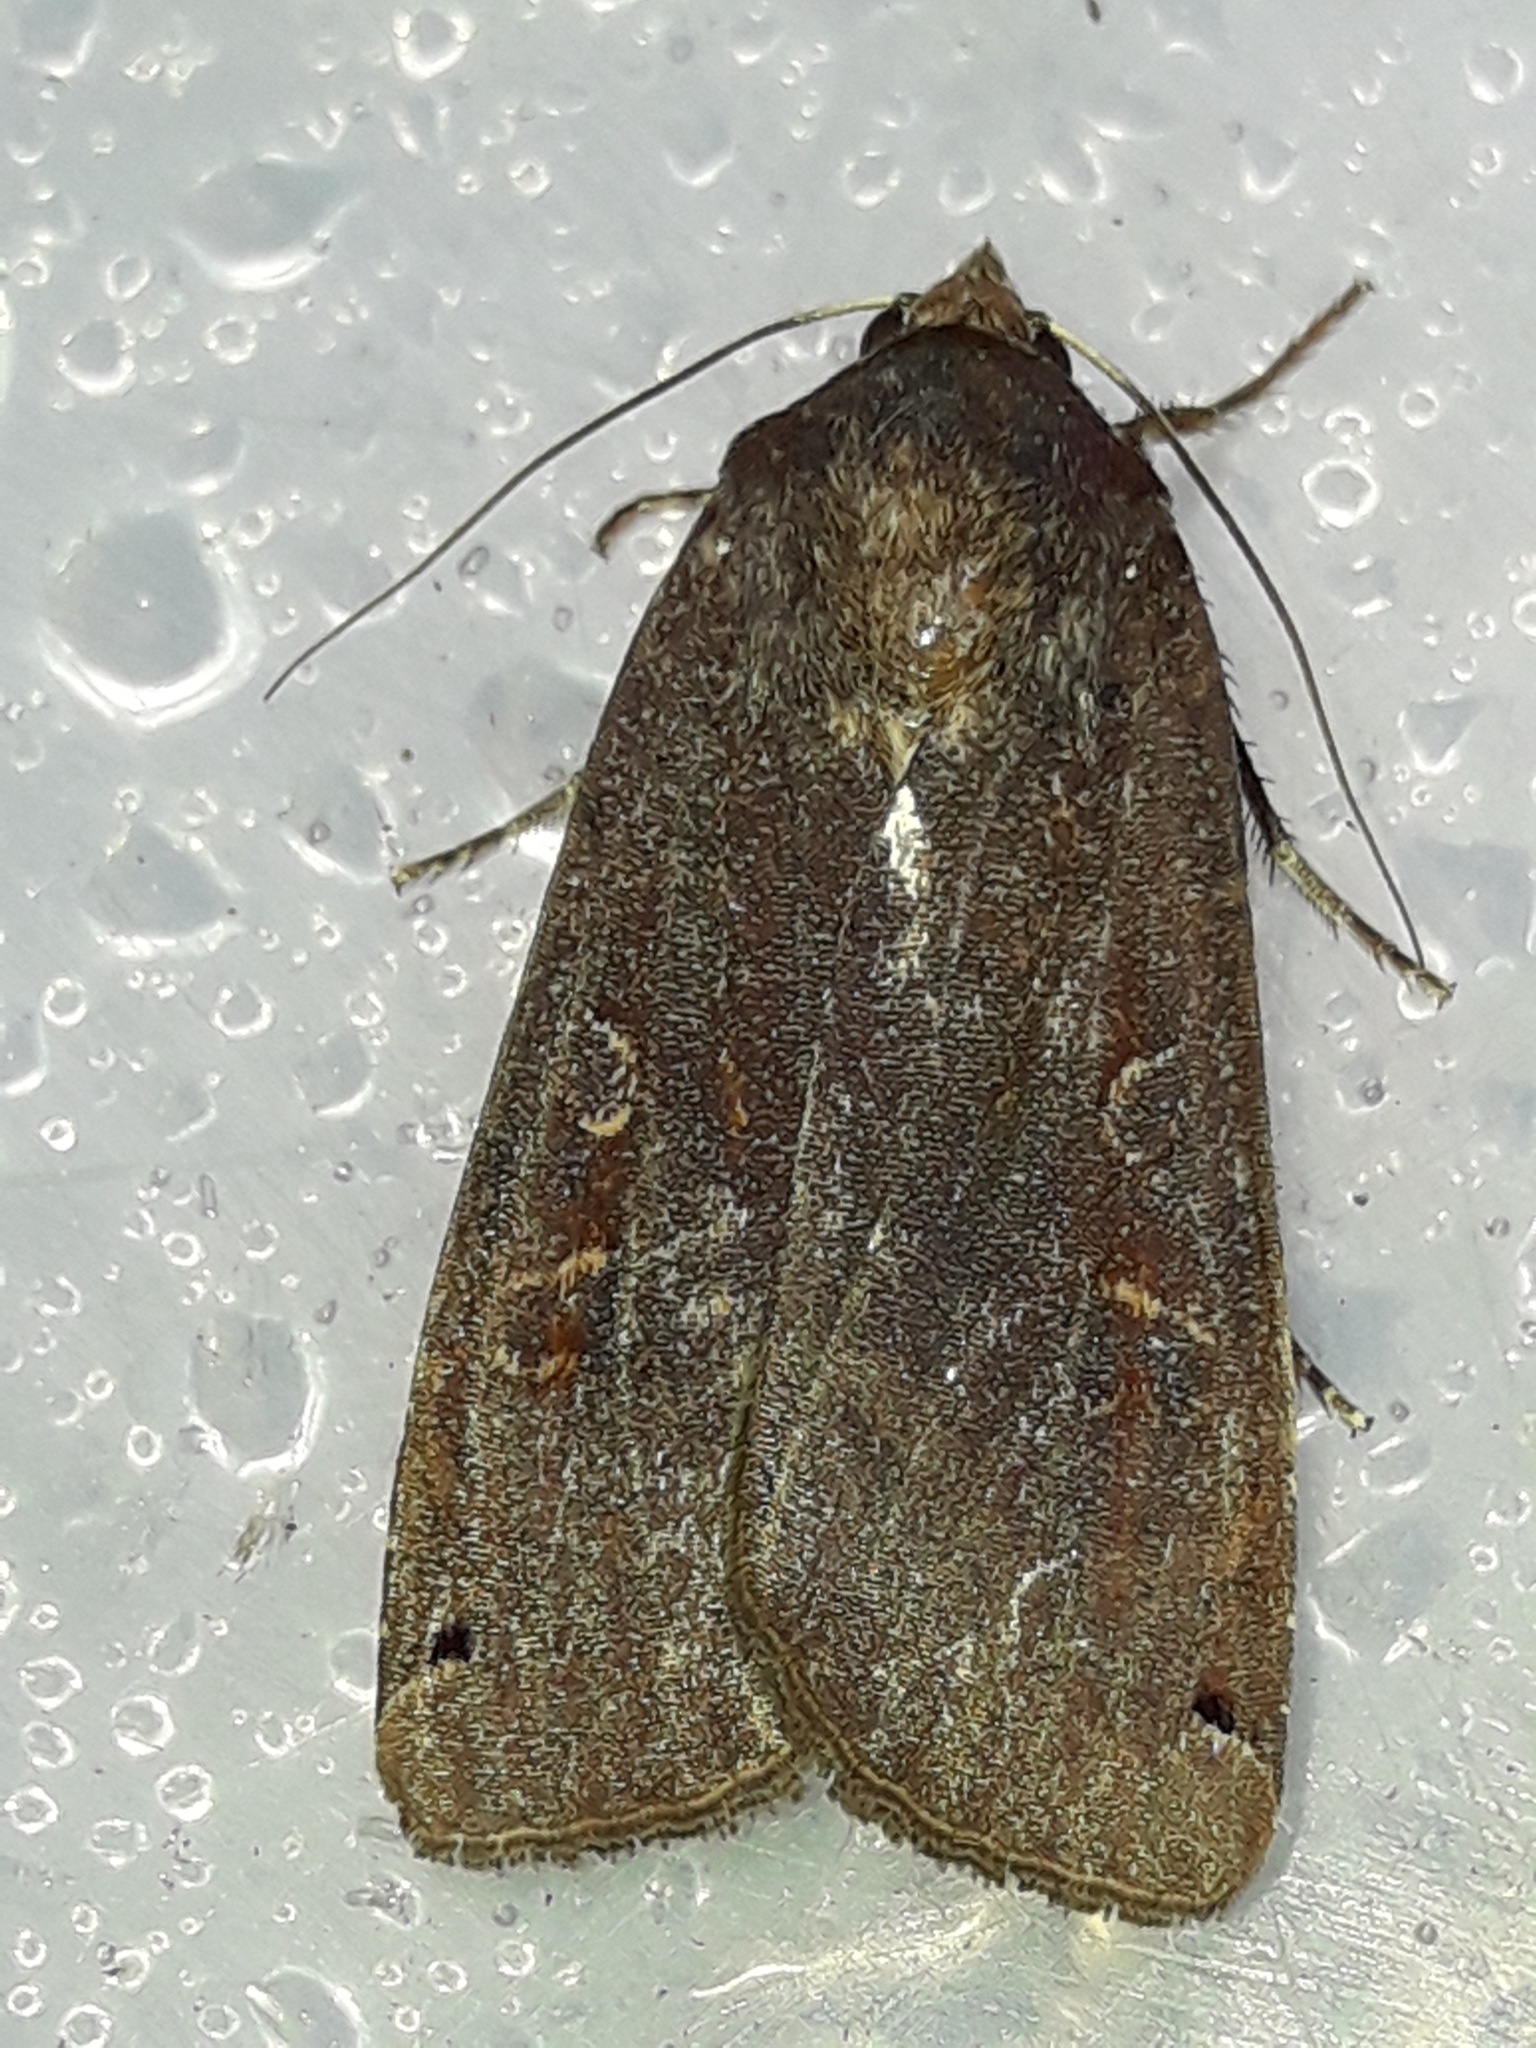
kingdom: Animalia
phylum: Arthropoda
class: Insecta
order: Lepidoptera
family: Noctuidae
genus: Noctua
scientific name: Noctua pronuba
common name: Large yellow underwing
